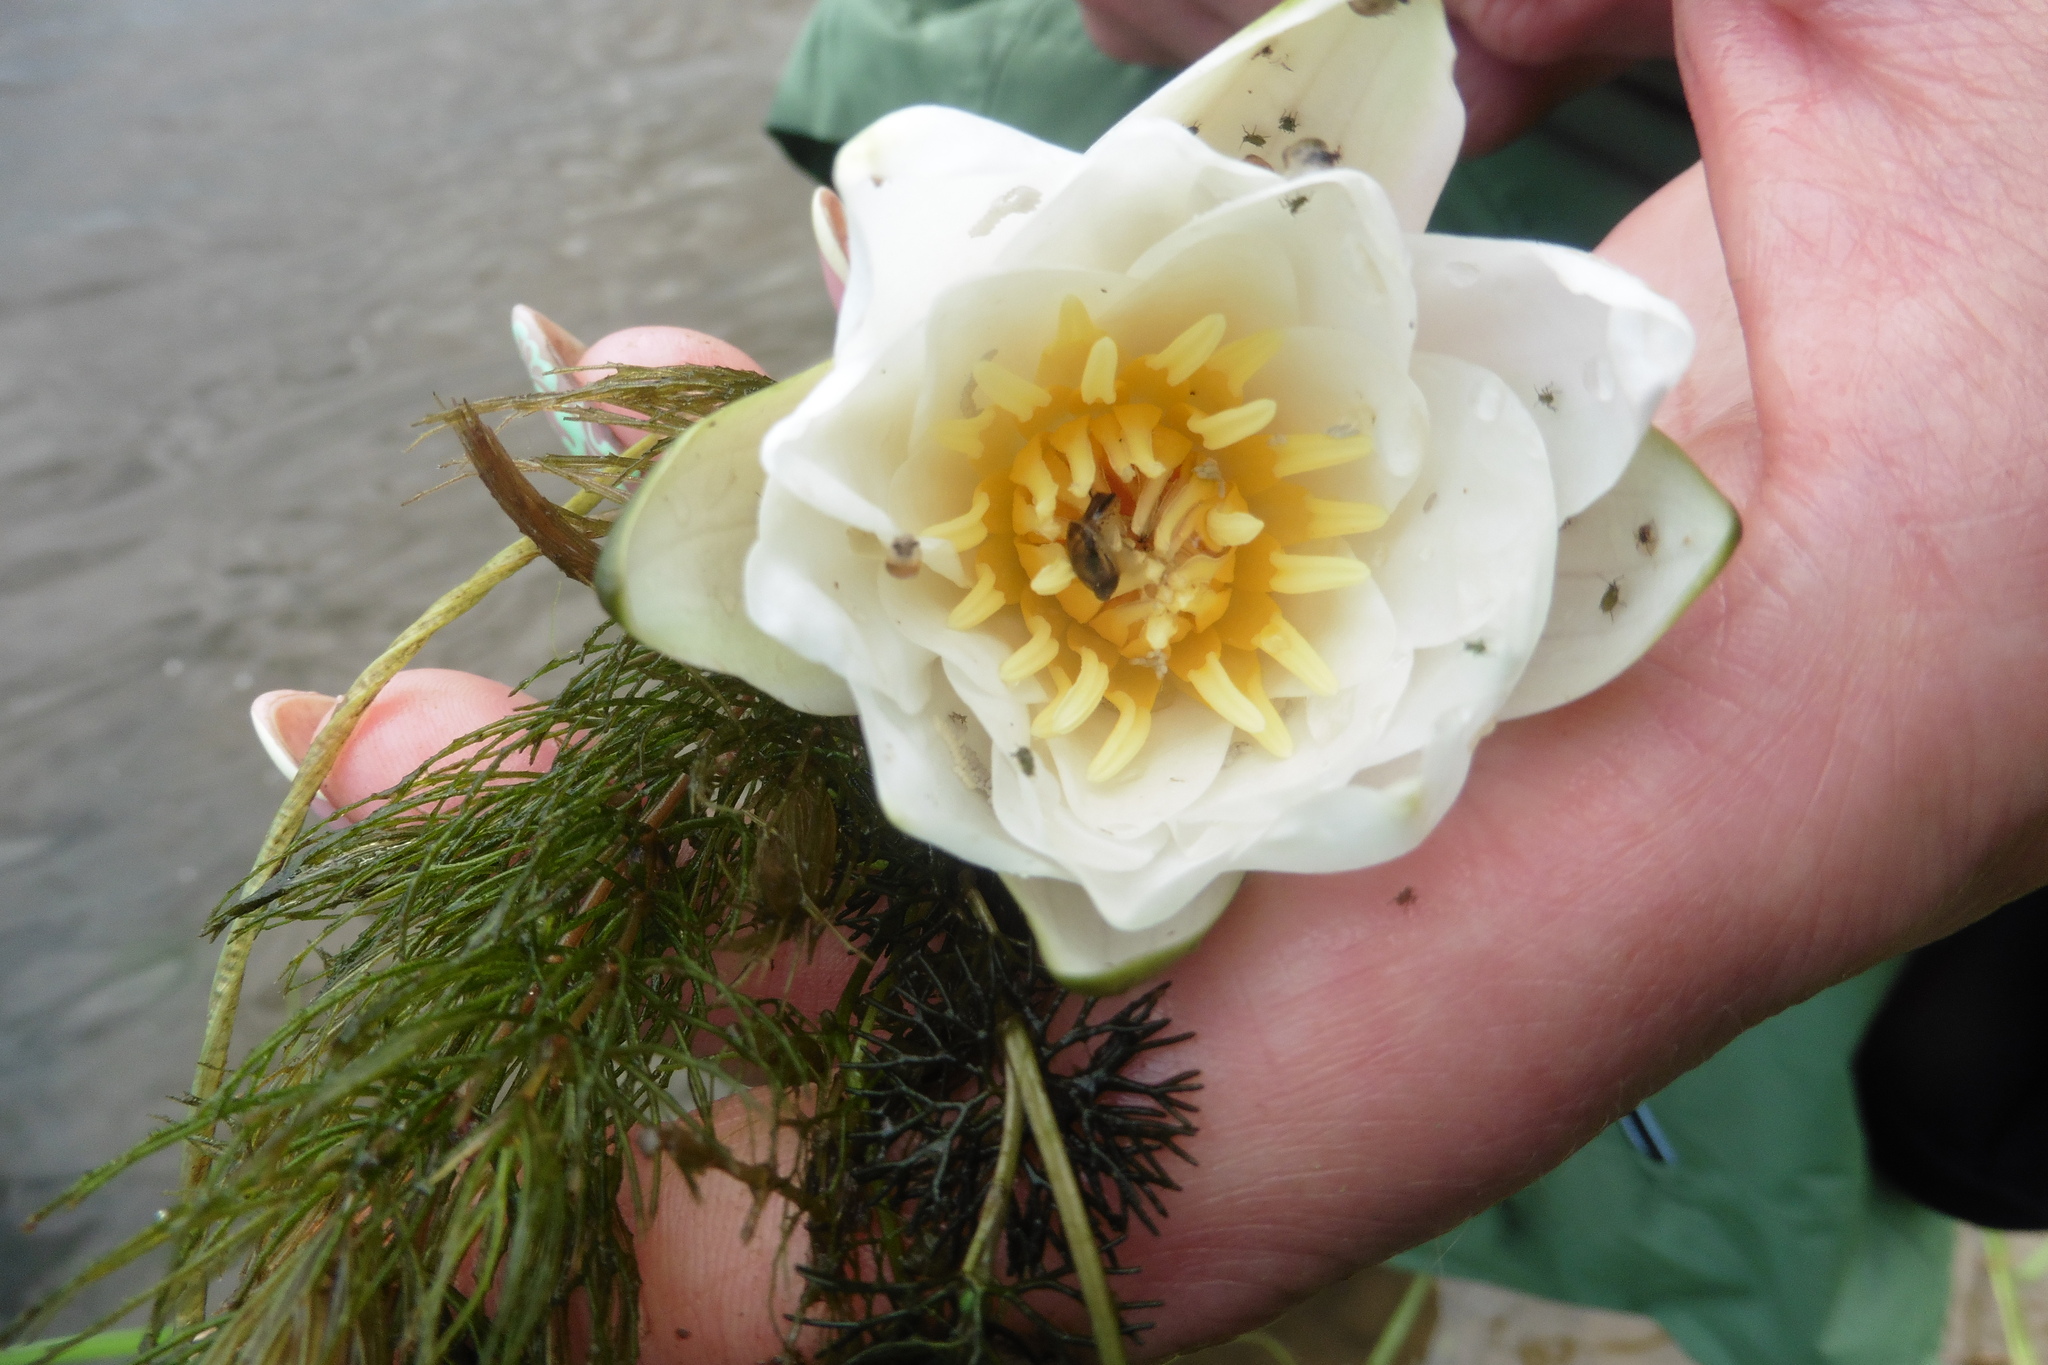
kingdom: Plantae
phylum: Tracheophyta
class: Magnoliopsida
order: Nymphaeales
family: Nymphaeaceae
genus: Nymphaea
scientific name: Nymphaea candida
